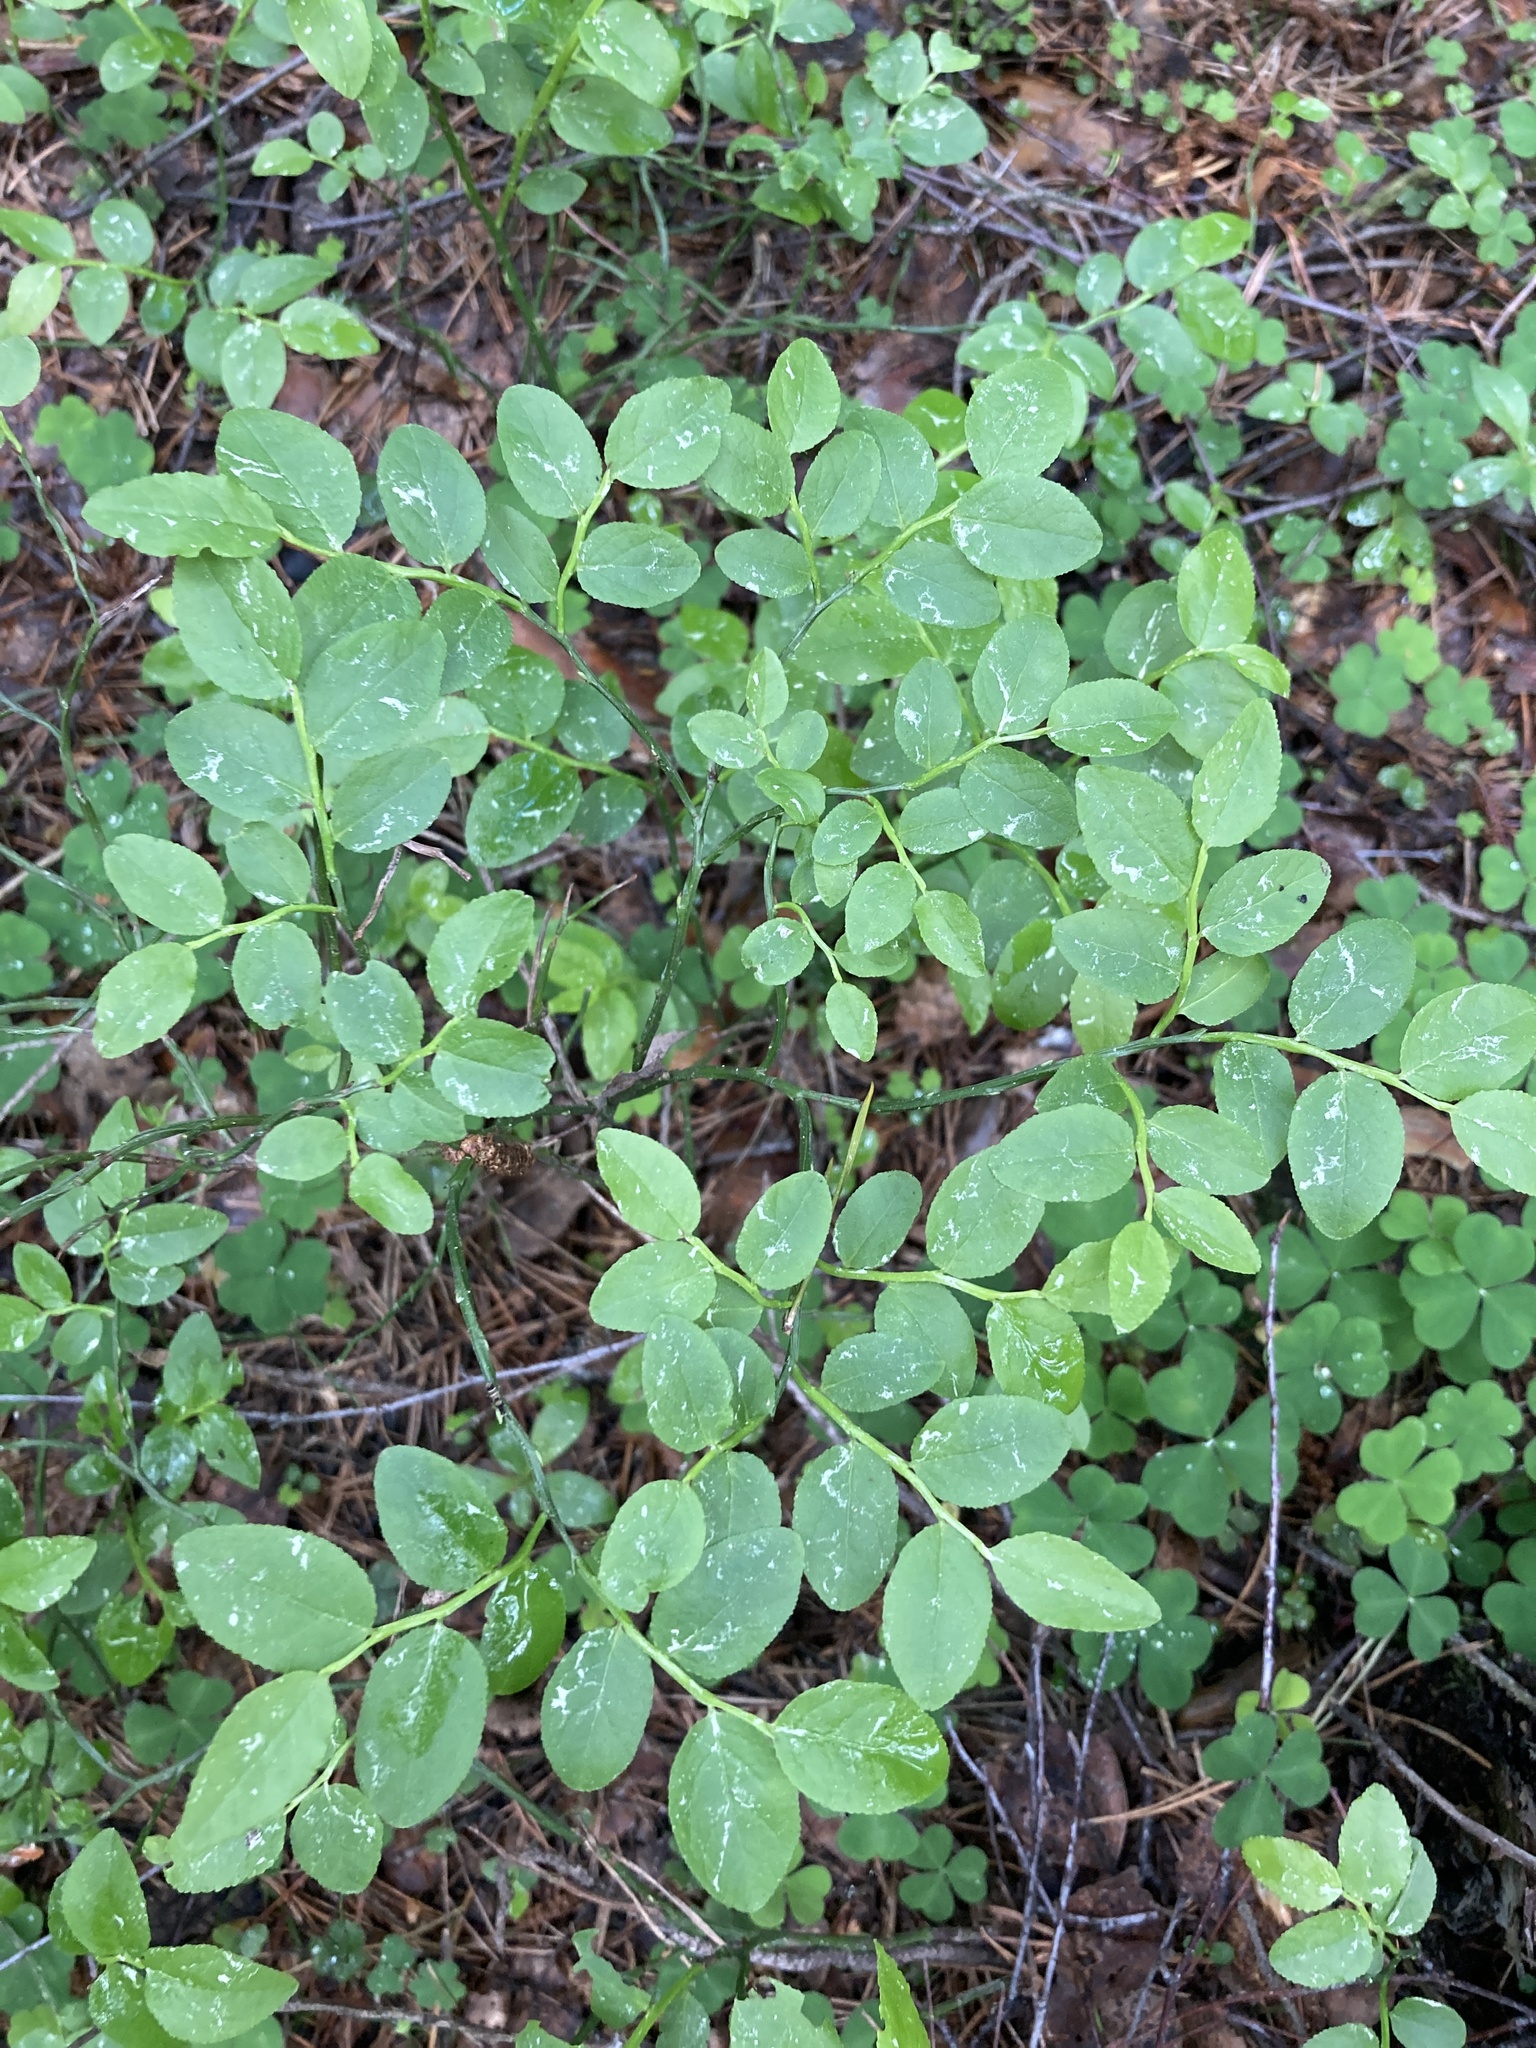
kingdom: Plantae
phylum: Tracheophyta
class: Magnoliopsida
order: Ericales
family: Ericaceae
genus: Vaccinium
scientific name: Vaccinium myrtillus
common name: Bilberry
